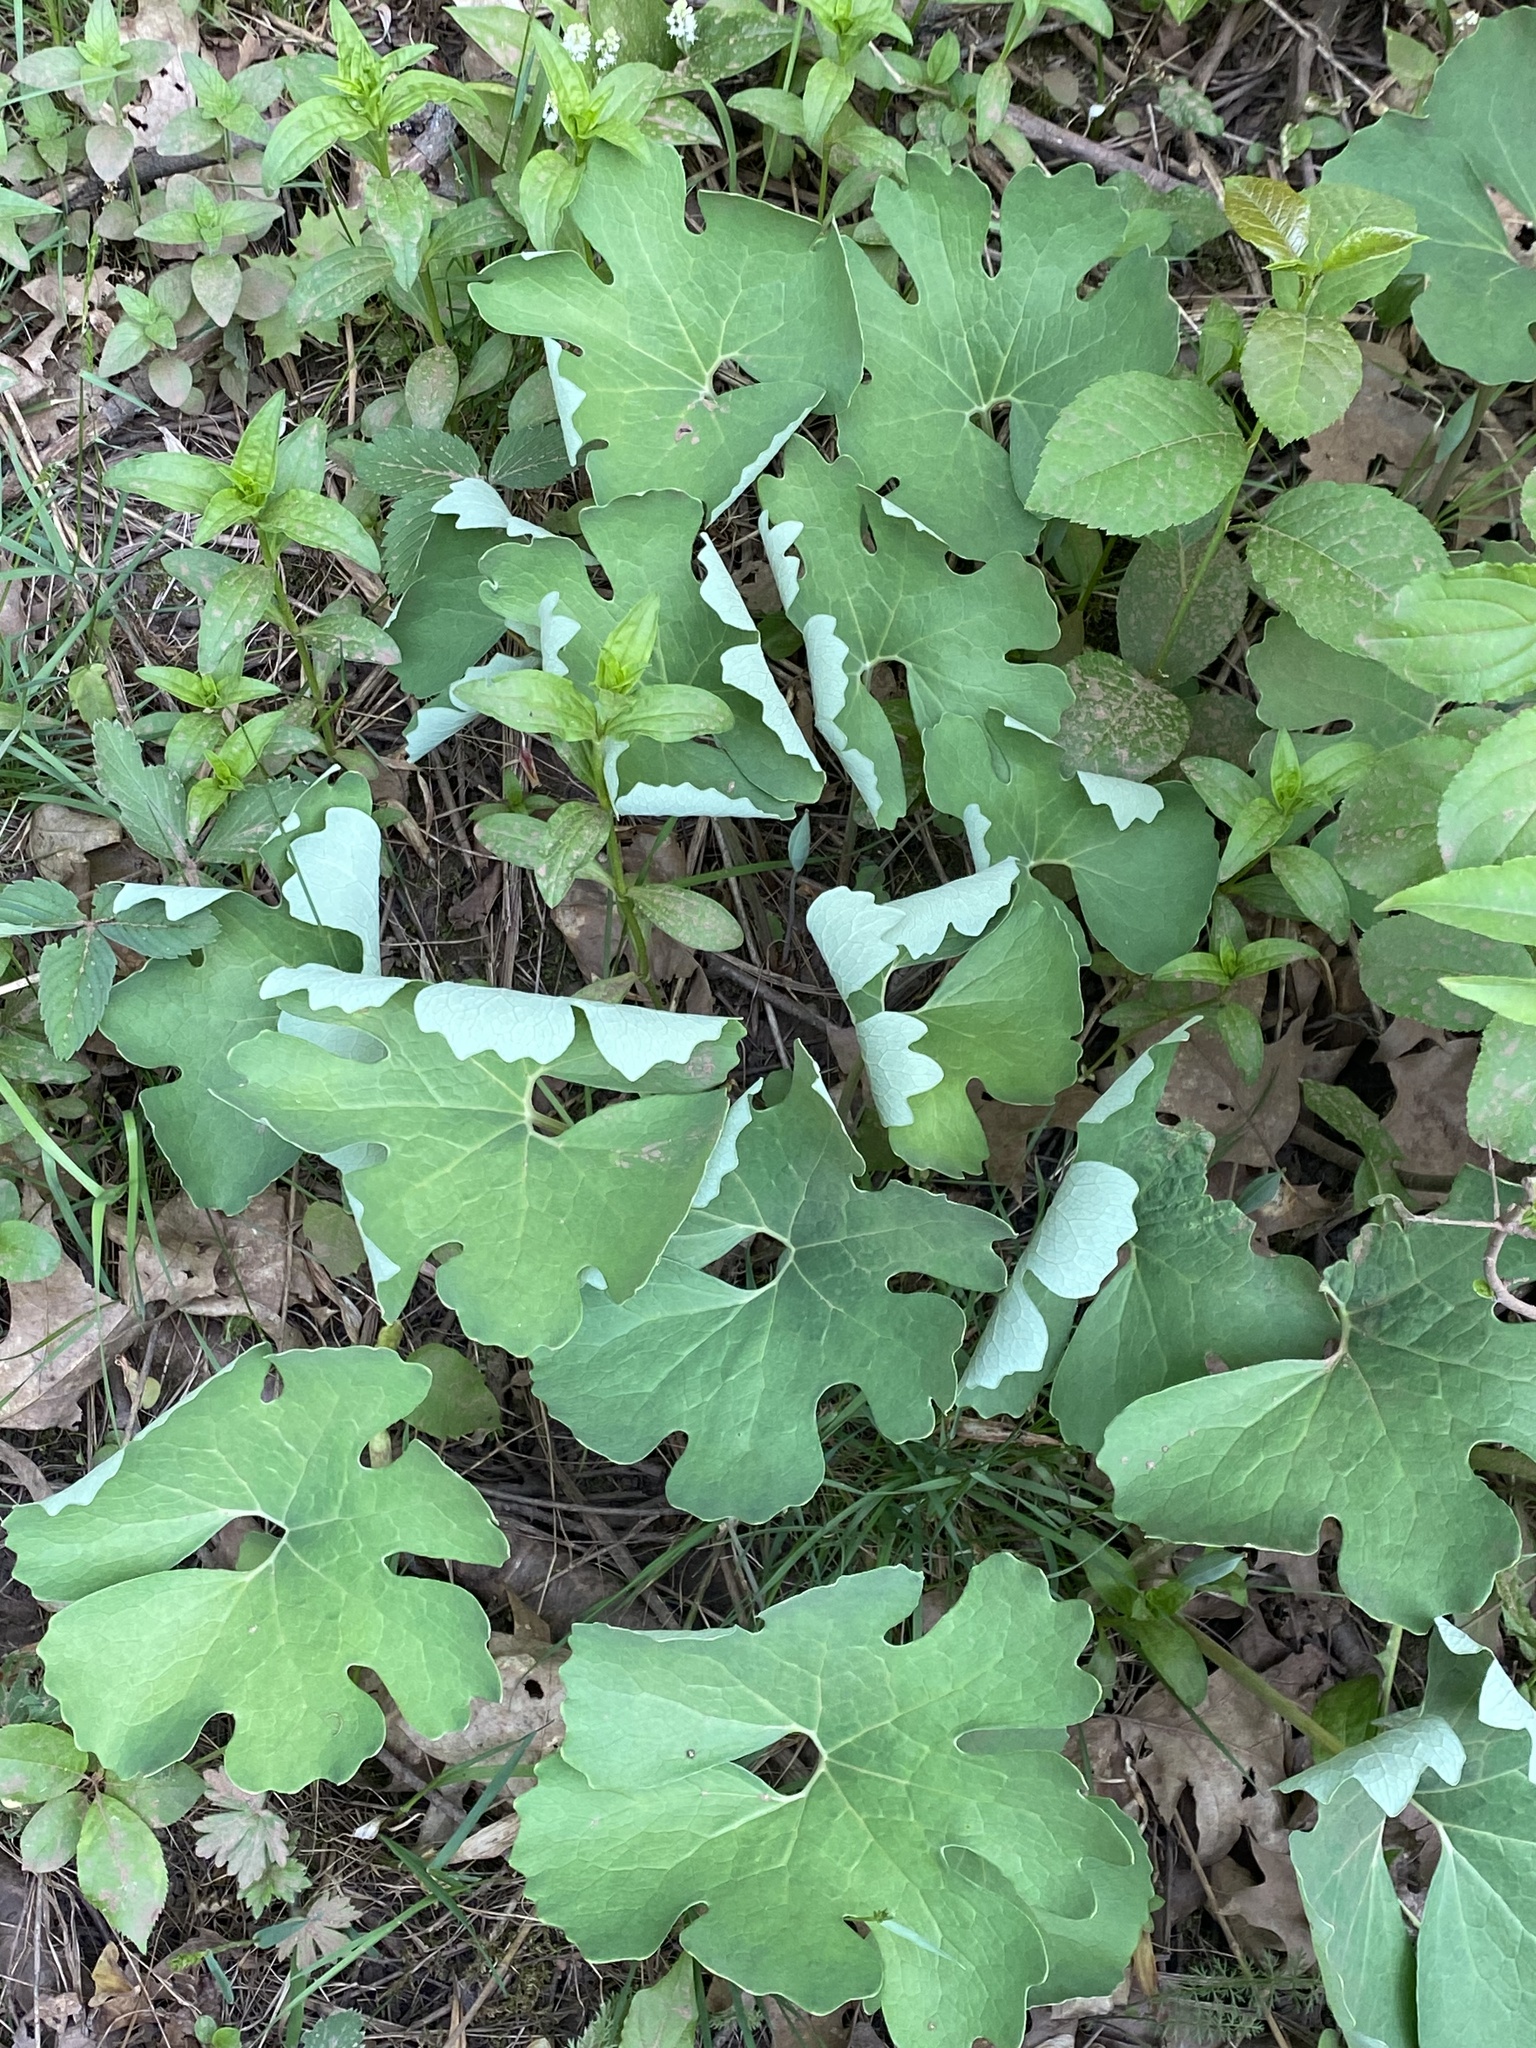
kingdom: Plantae
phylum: Tracheophyta
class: Magnoliopsida
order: Ranunculales
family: Papaveraceae
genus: Sanguinaria
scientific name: Sanguinaria canadensis
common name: Bloodroot
